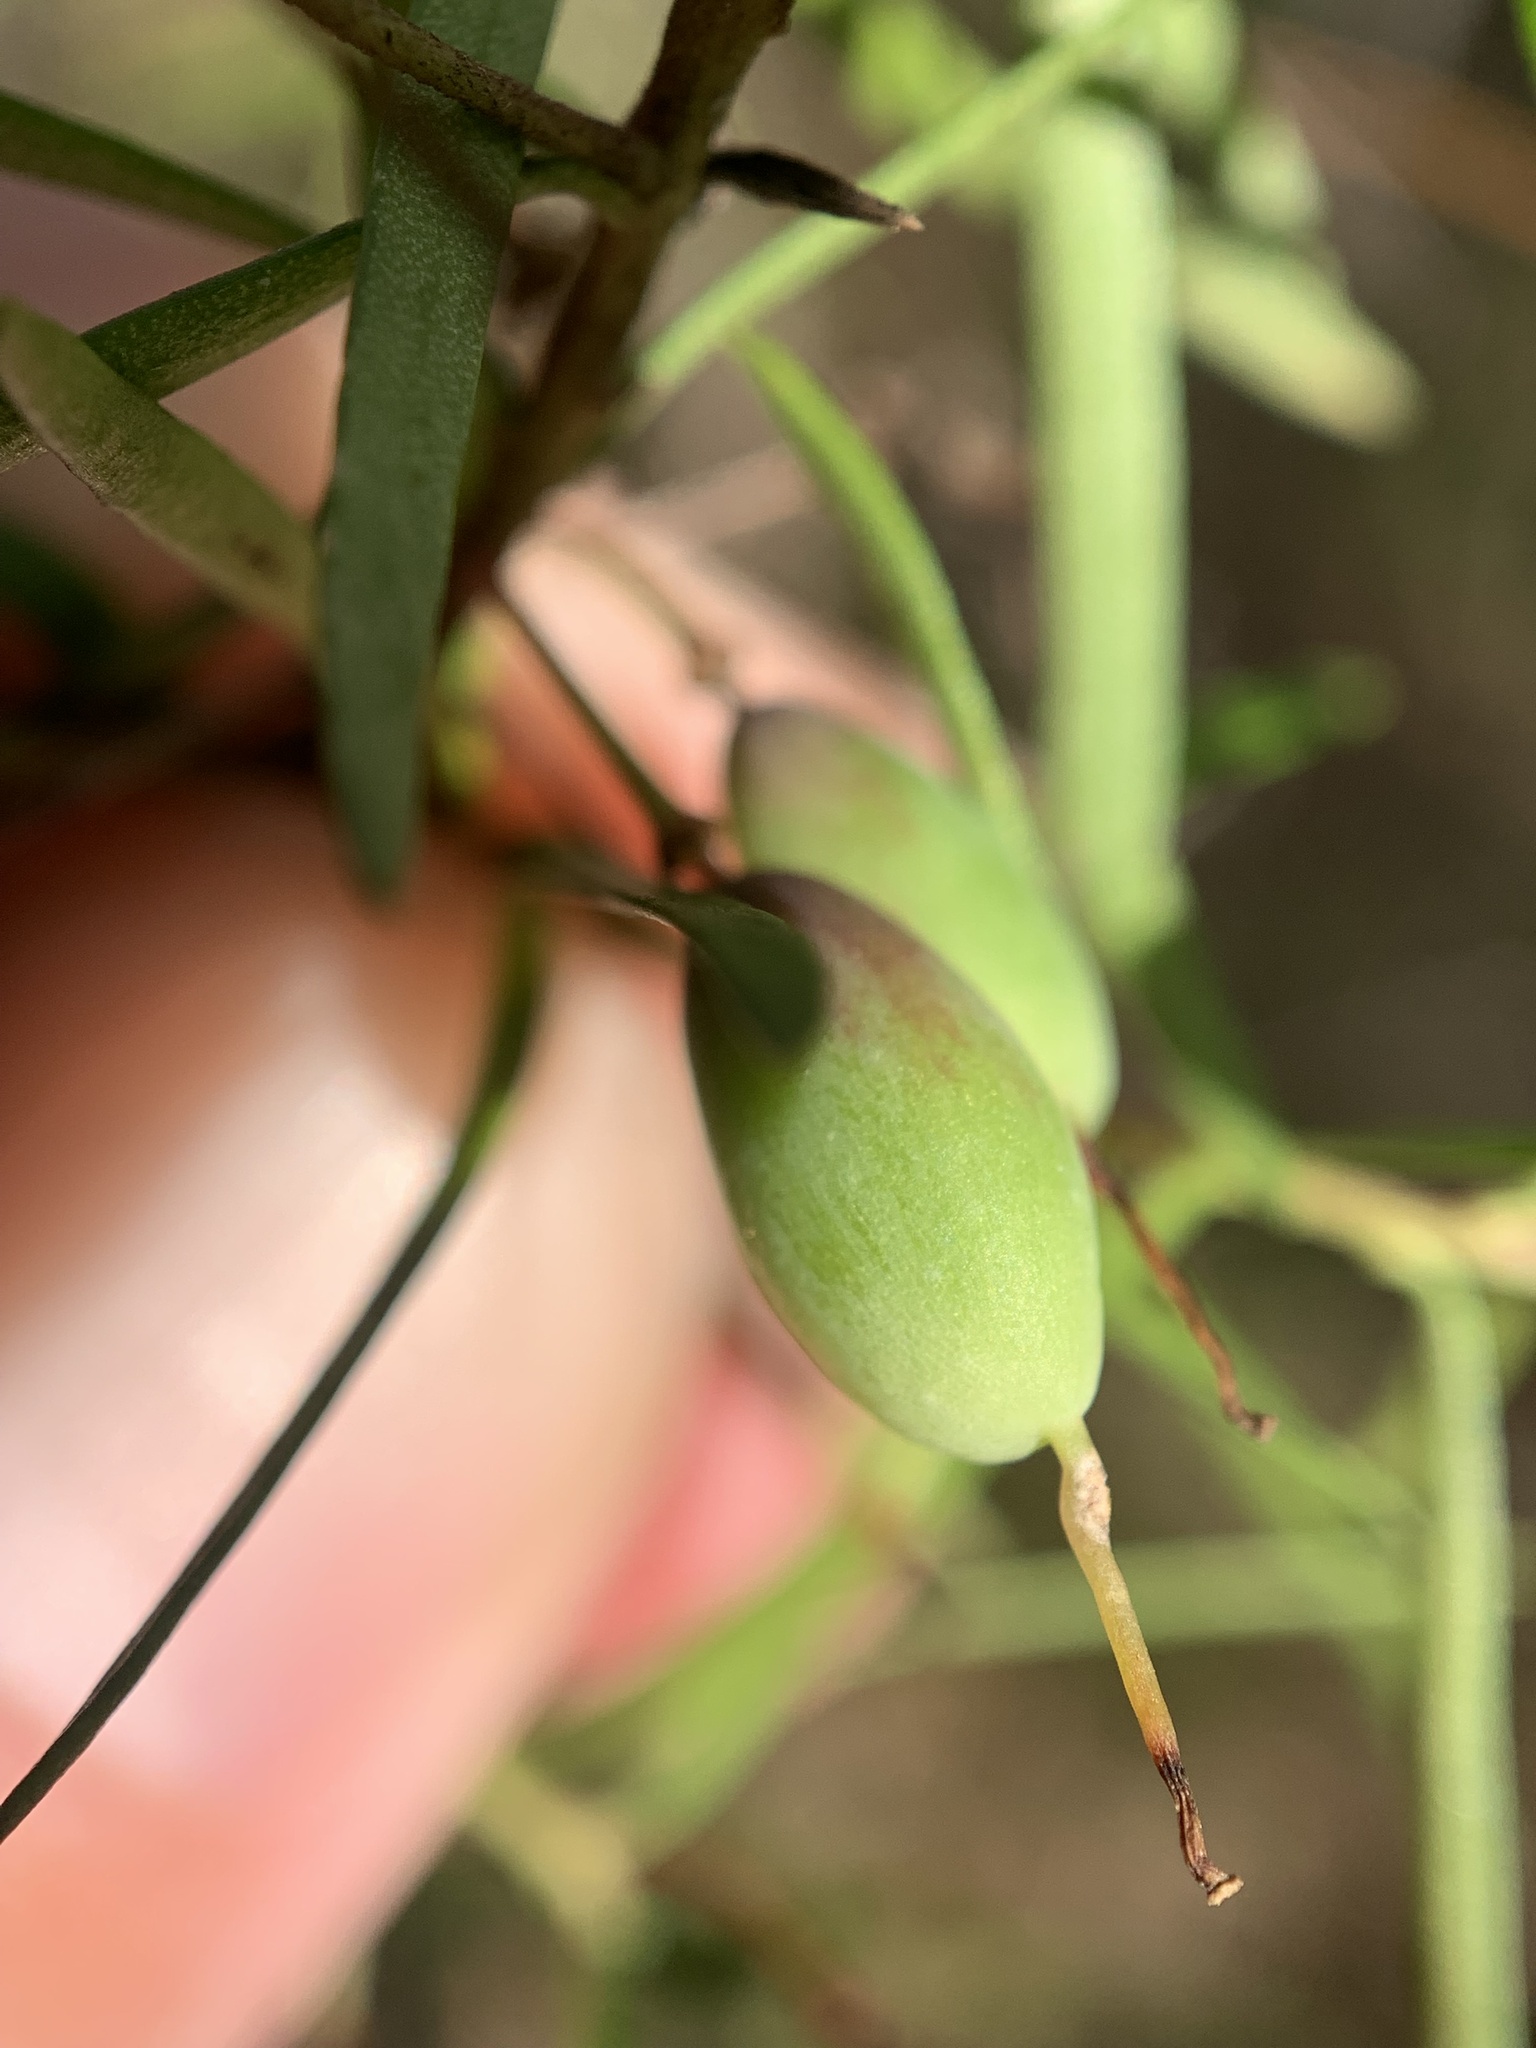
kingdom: Plantae
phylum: Tracheophyta
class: Magnoliopsida
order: Proteales
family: Proteaceae
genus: Persoonia
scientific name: Persoonia nutans
